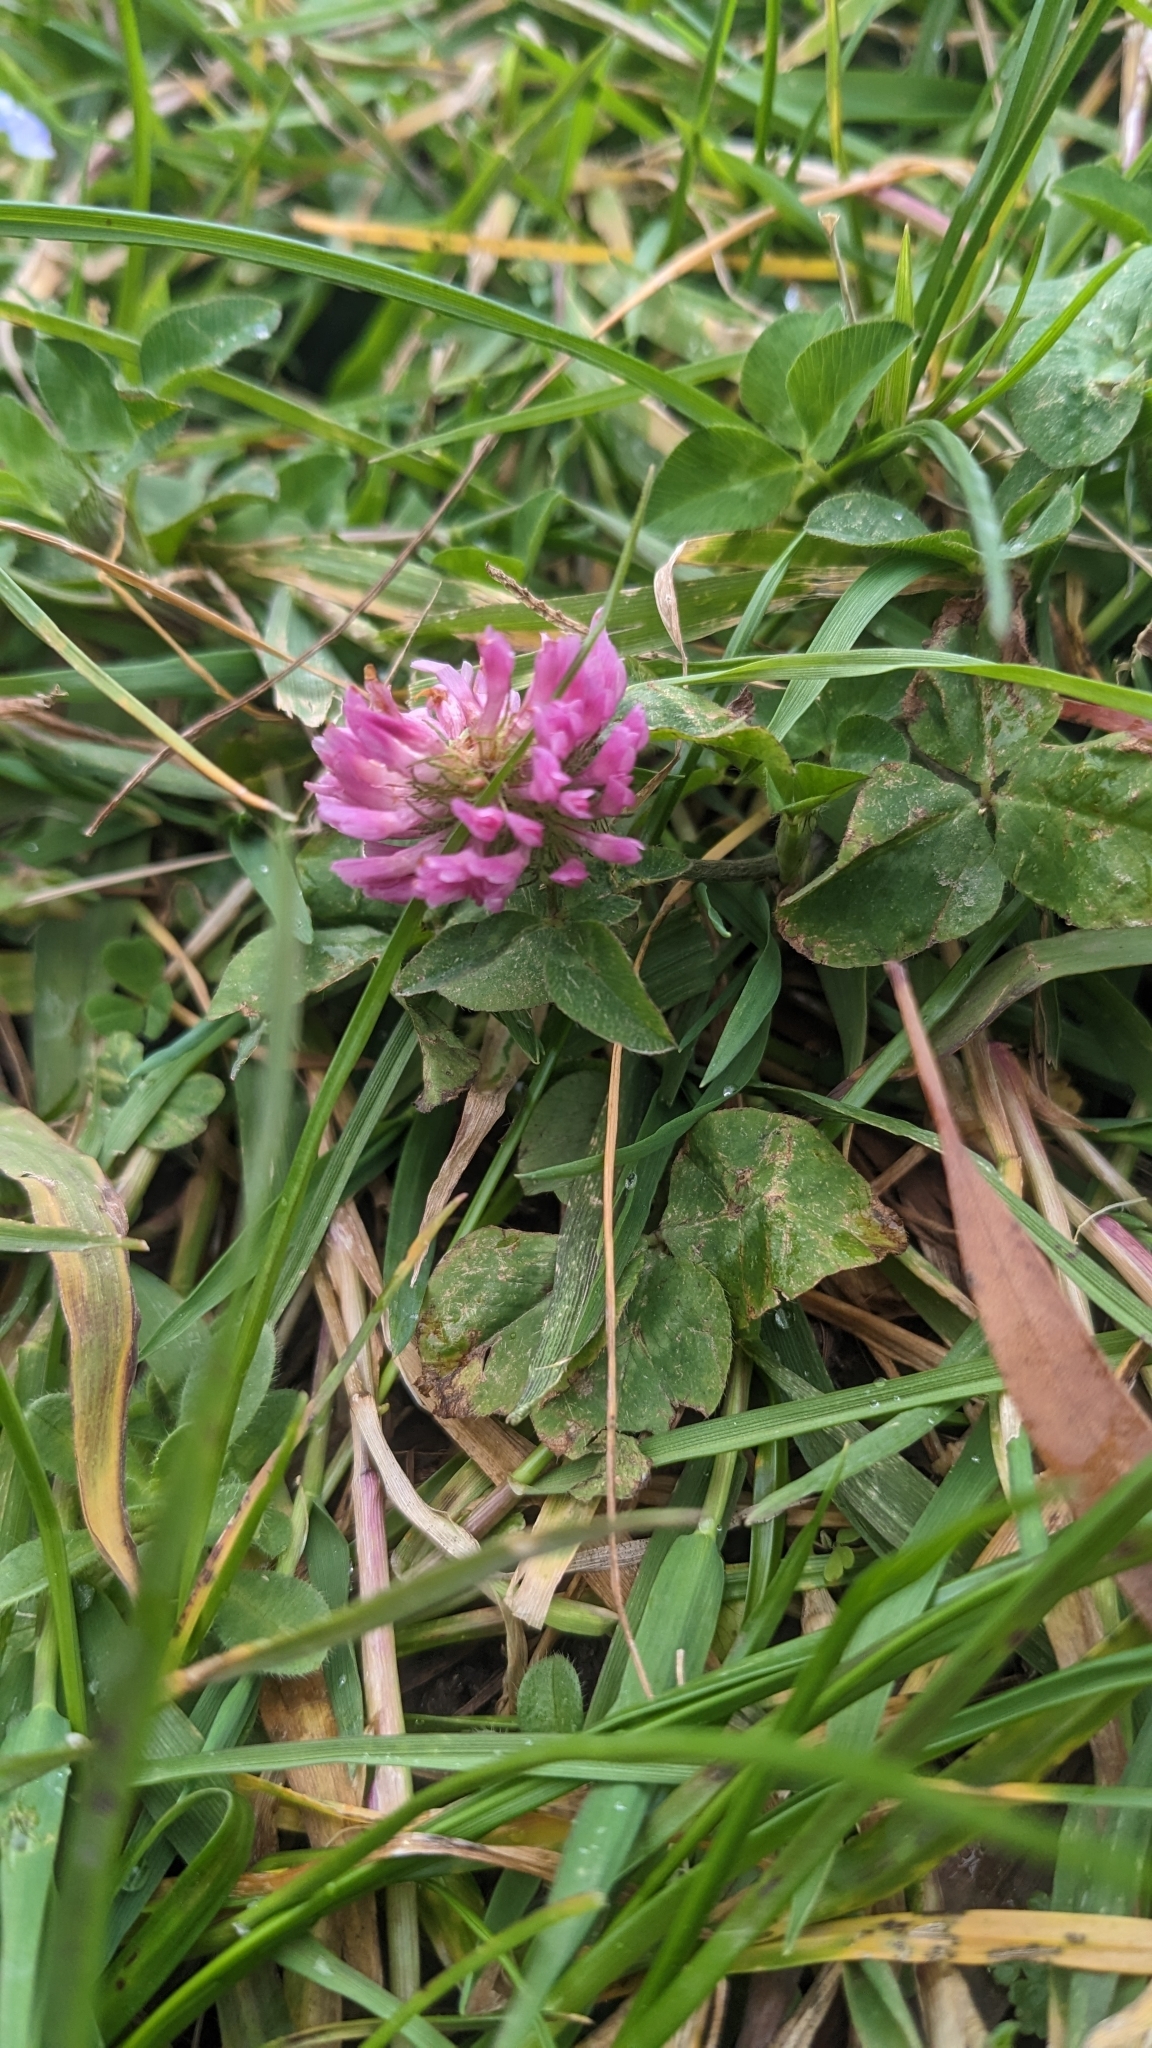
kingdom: Plantae
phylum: Tracheophyta
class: Magnoliopsida
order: Fabales
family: Fabaceae
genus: Trifolium
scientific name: Trifolium pratense
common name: Red clover
